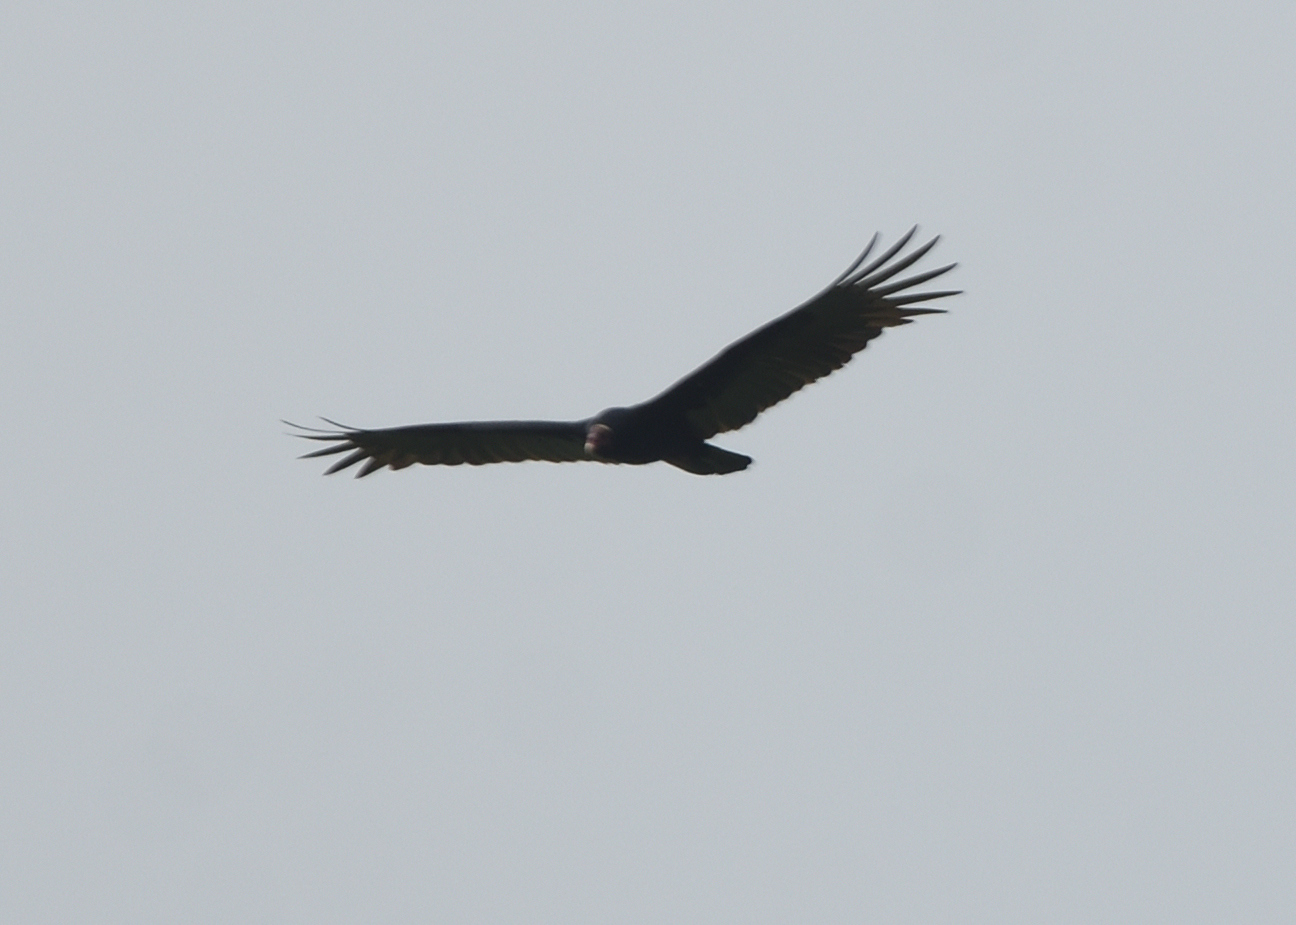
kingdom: Animalia
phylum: Chordata
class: Aves
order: Accipitriformes
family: Cathartidae
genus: Cathartes
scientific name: Cathartes aura
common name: Turkey vulture
